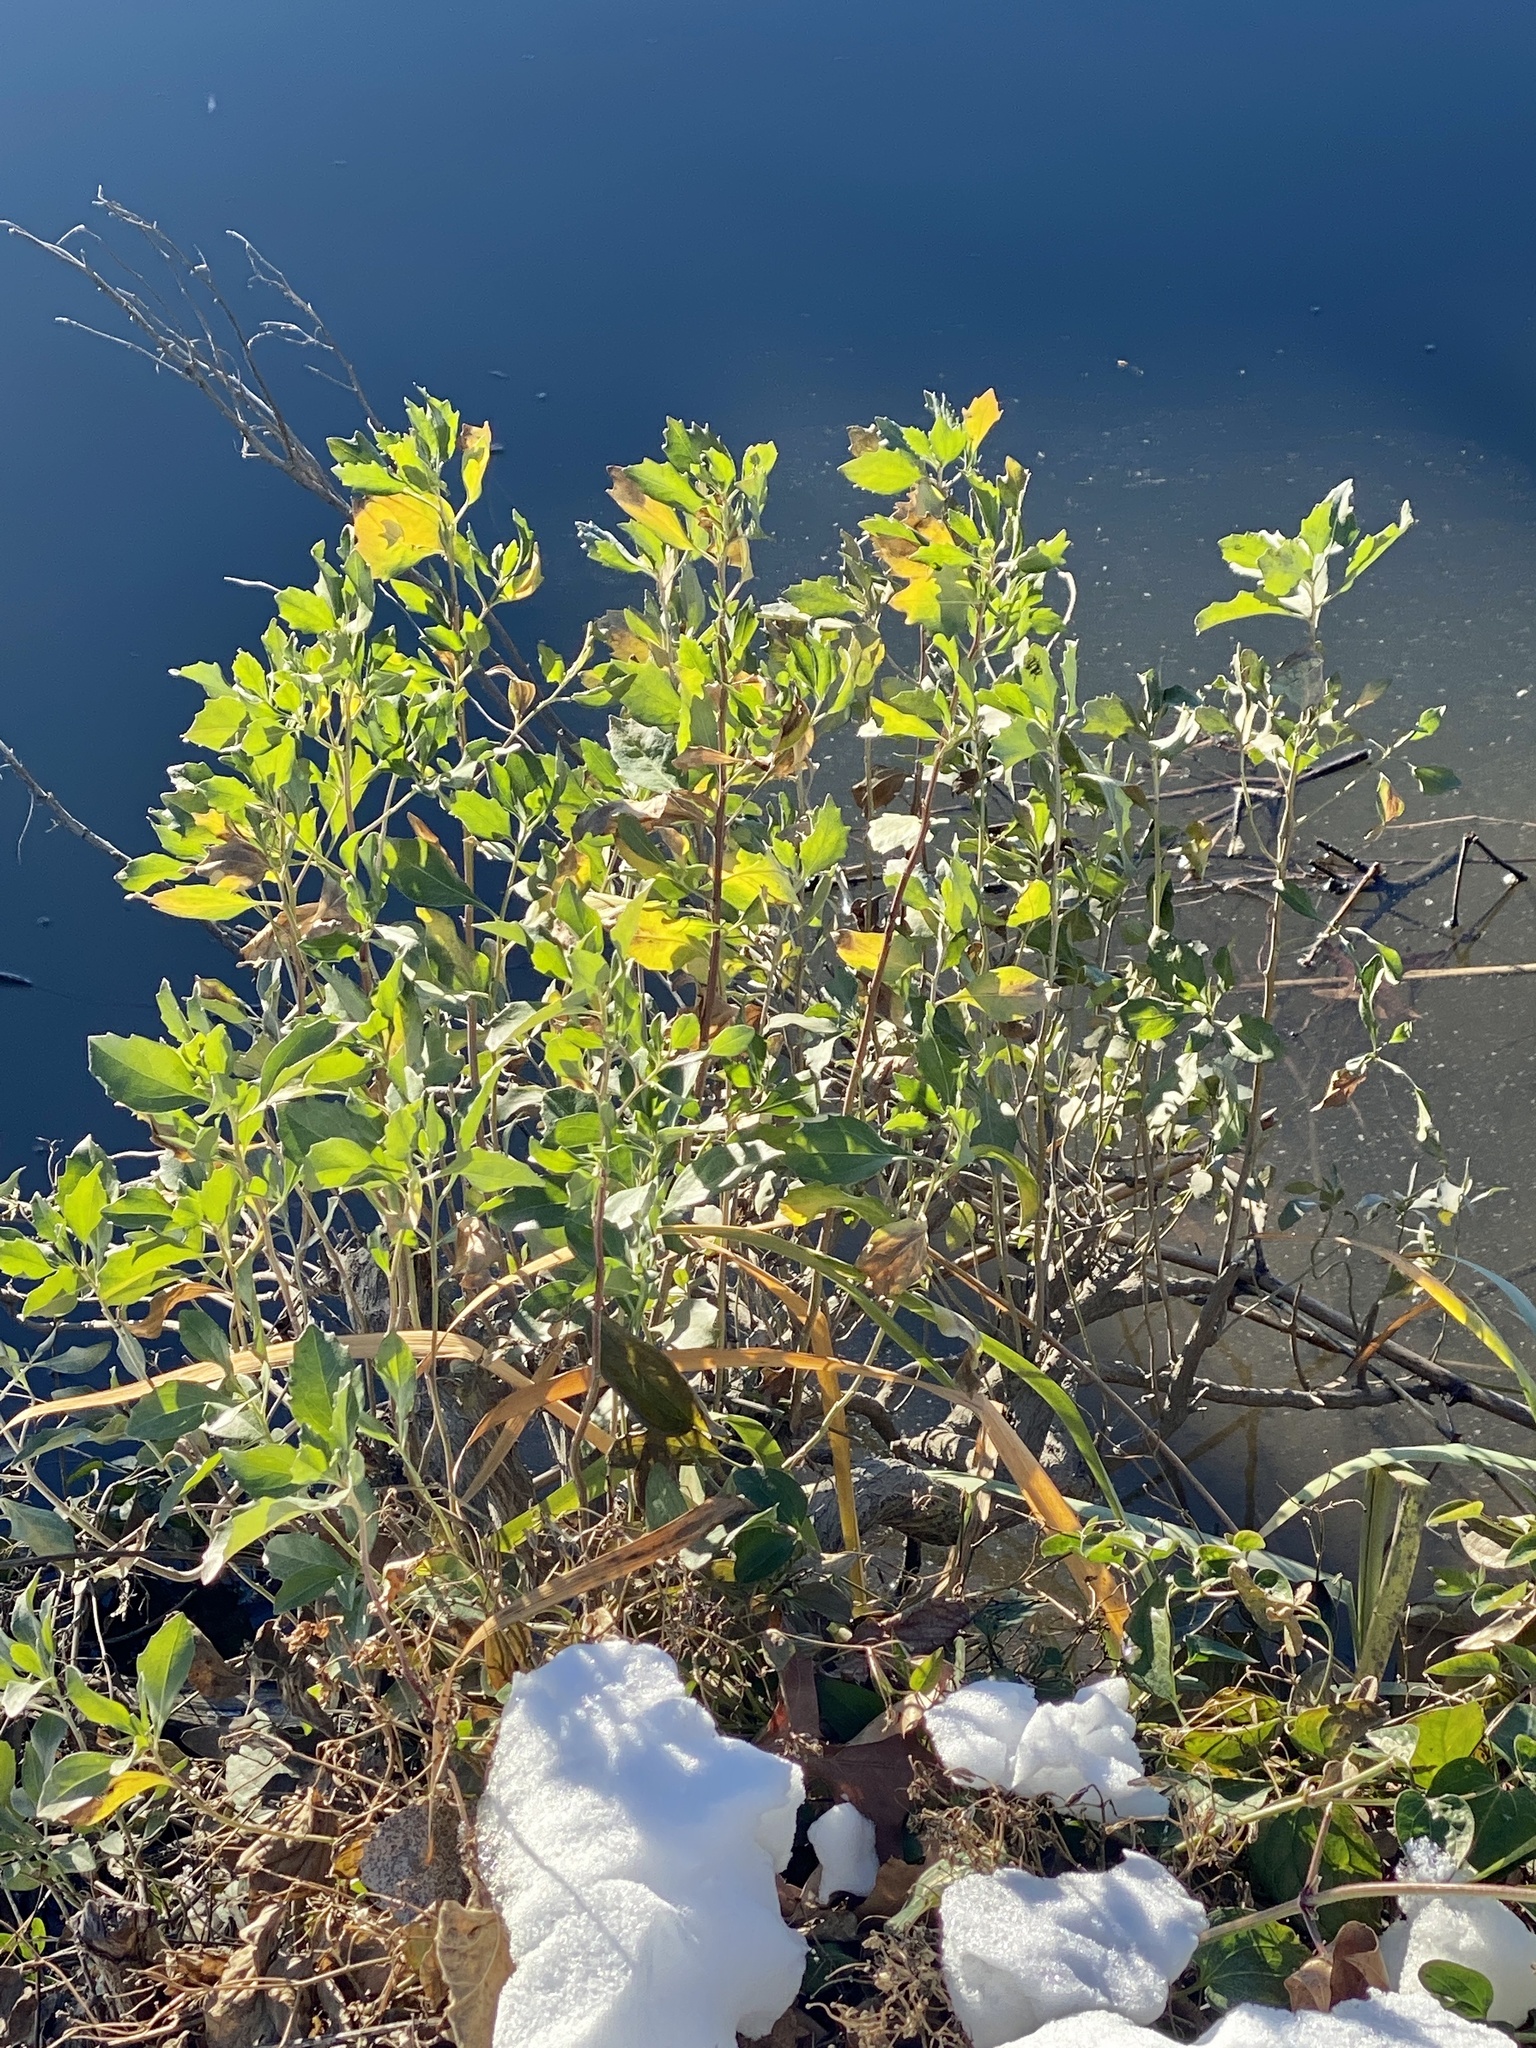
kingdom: Plantae
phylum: Tracheophyta
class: Magnoliopsida
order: Asterales
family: Asteraceae
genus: Baccharis
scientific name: Baccharis halimifolia
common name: Eastern baccharis
